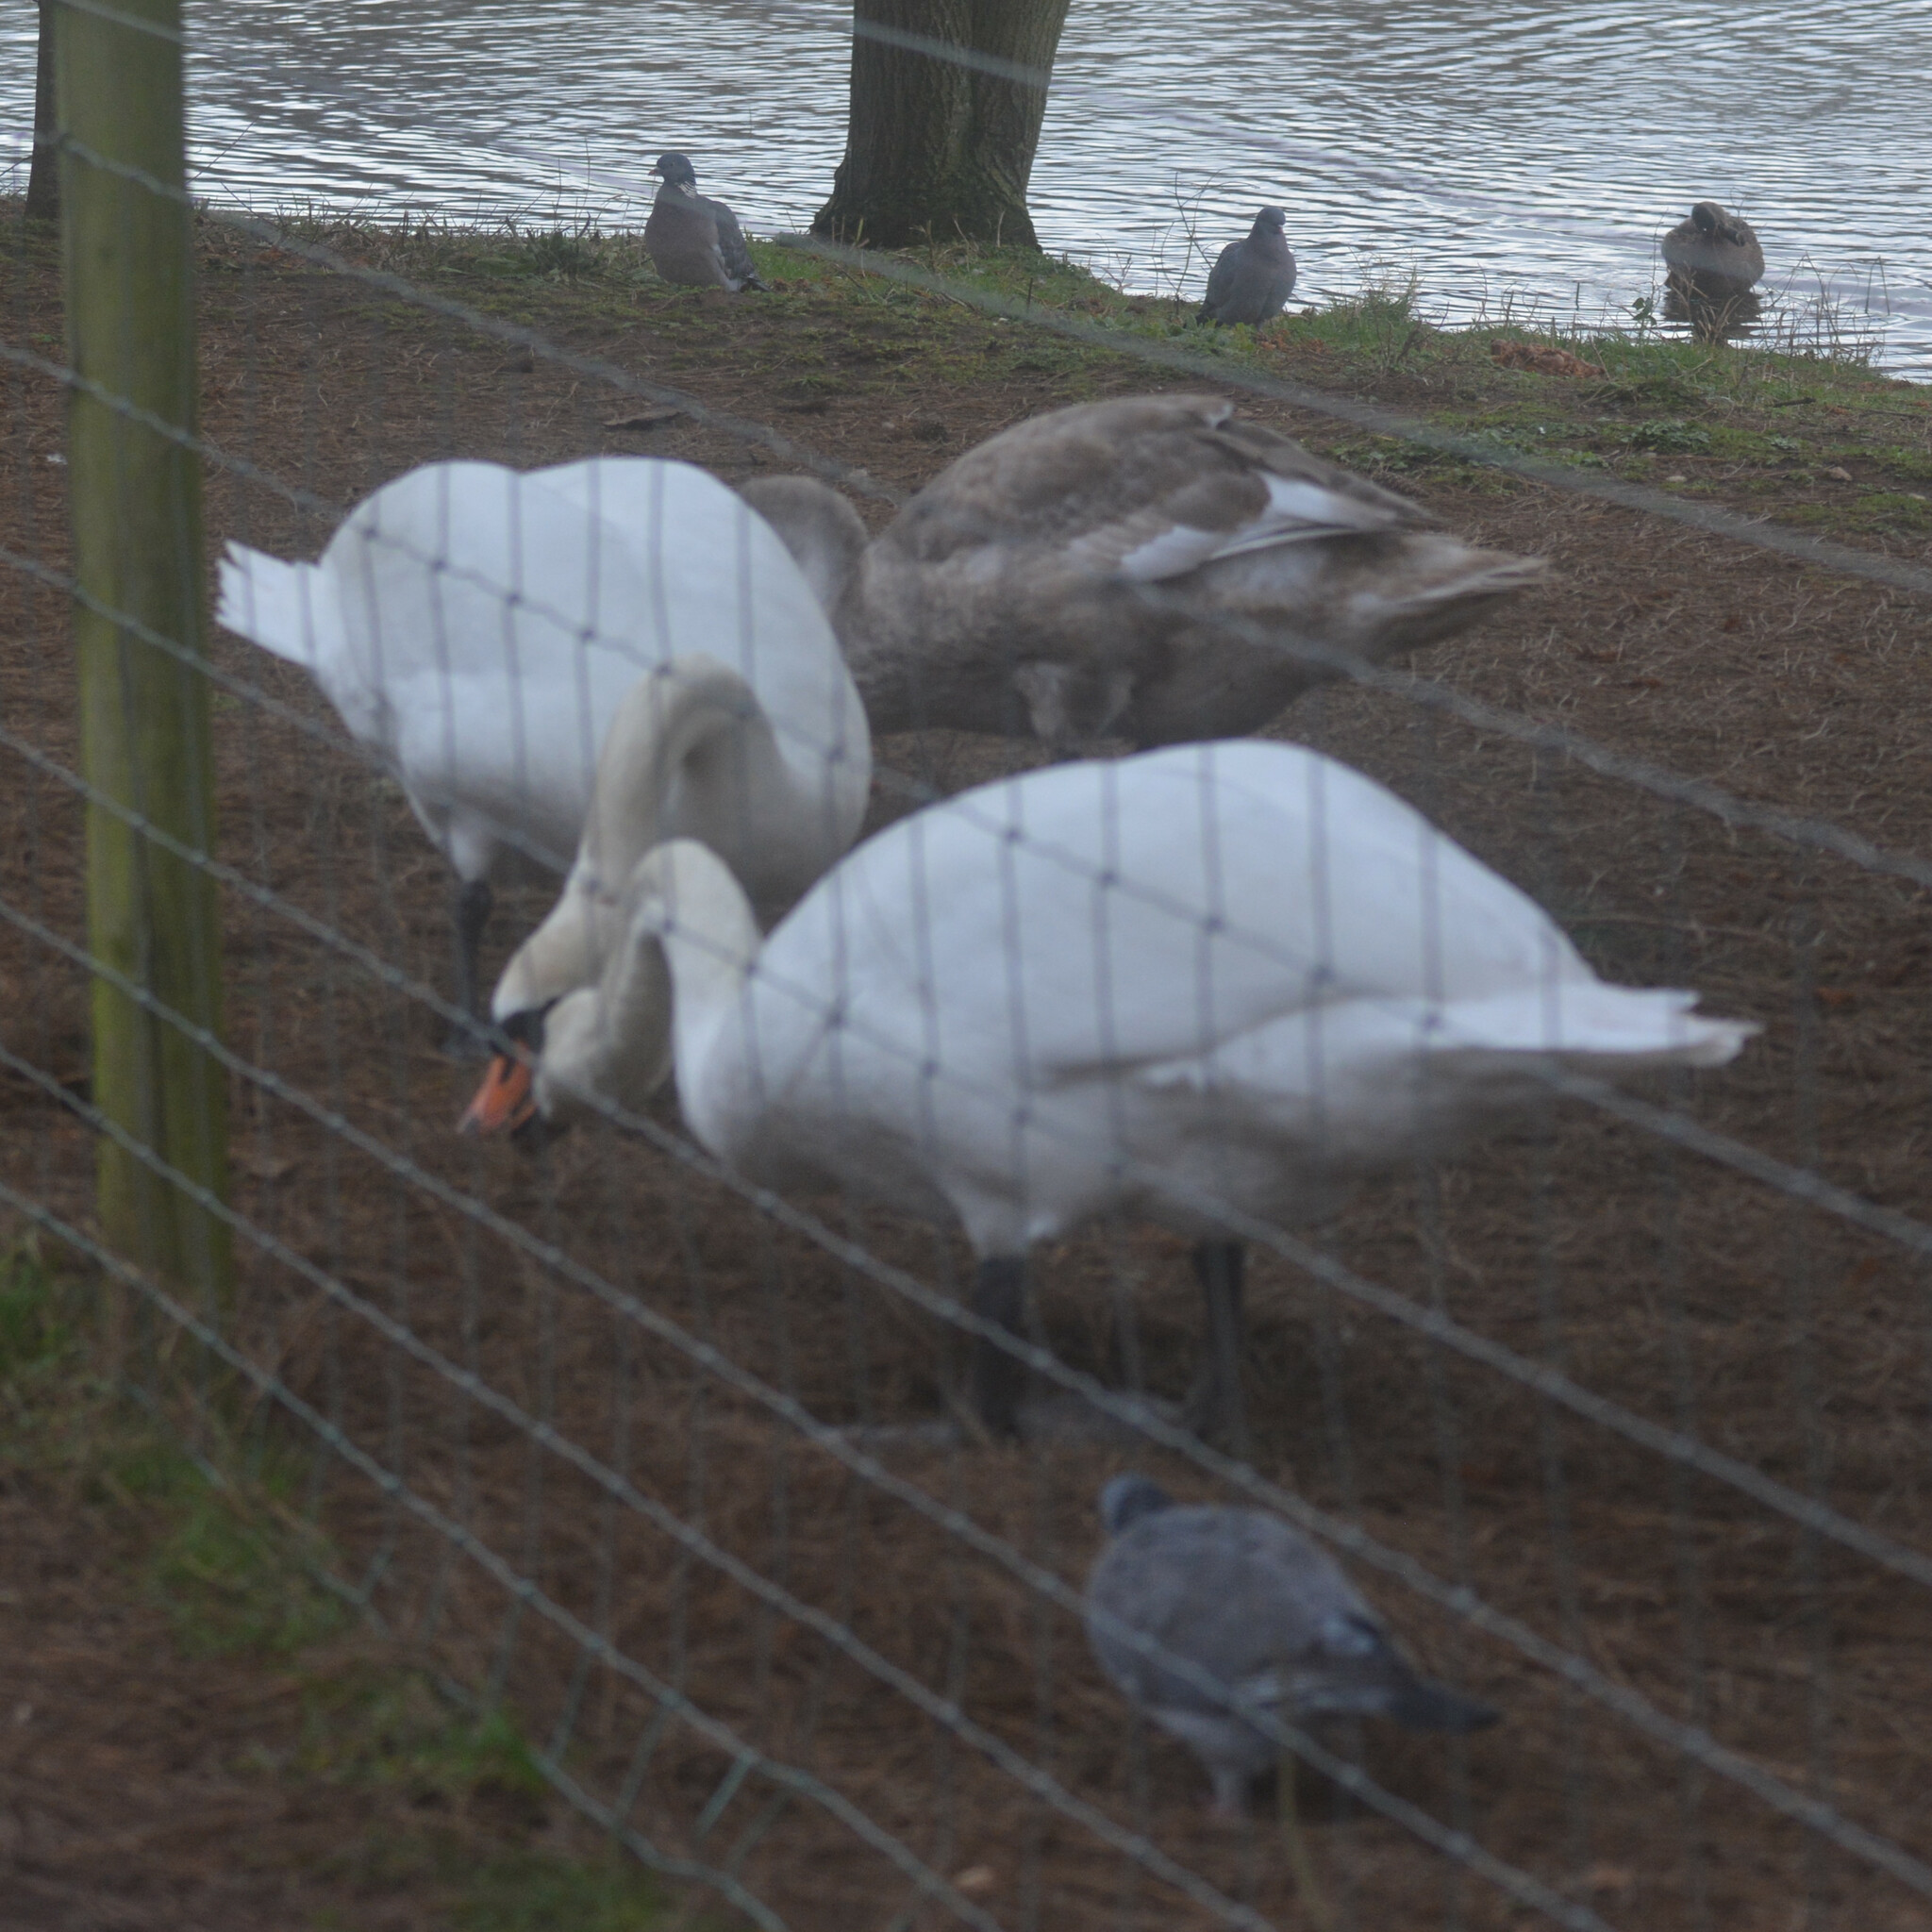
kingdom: Animalia
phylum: Chordata
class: Aves
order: Anseriformes
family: Anatidae
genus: Cygnus
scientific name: Cygnus olor
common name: Mute swan
